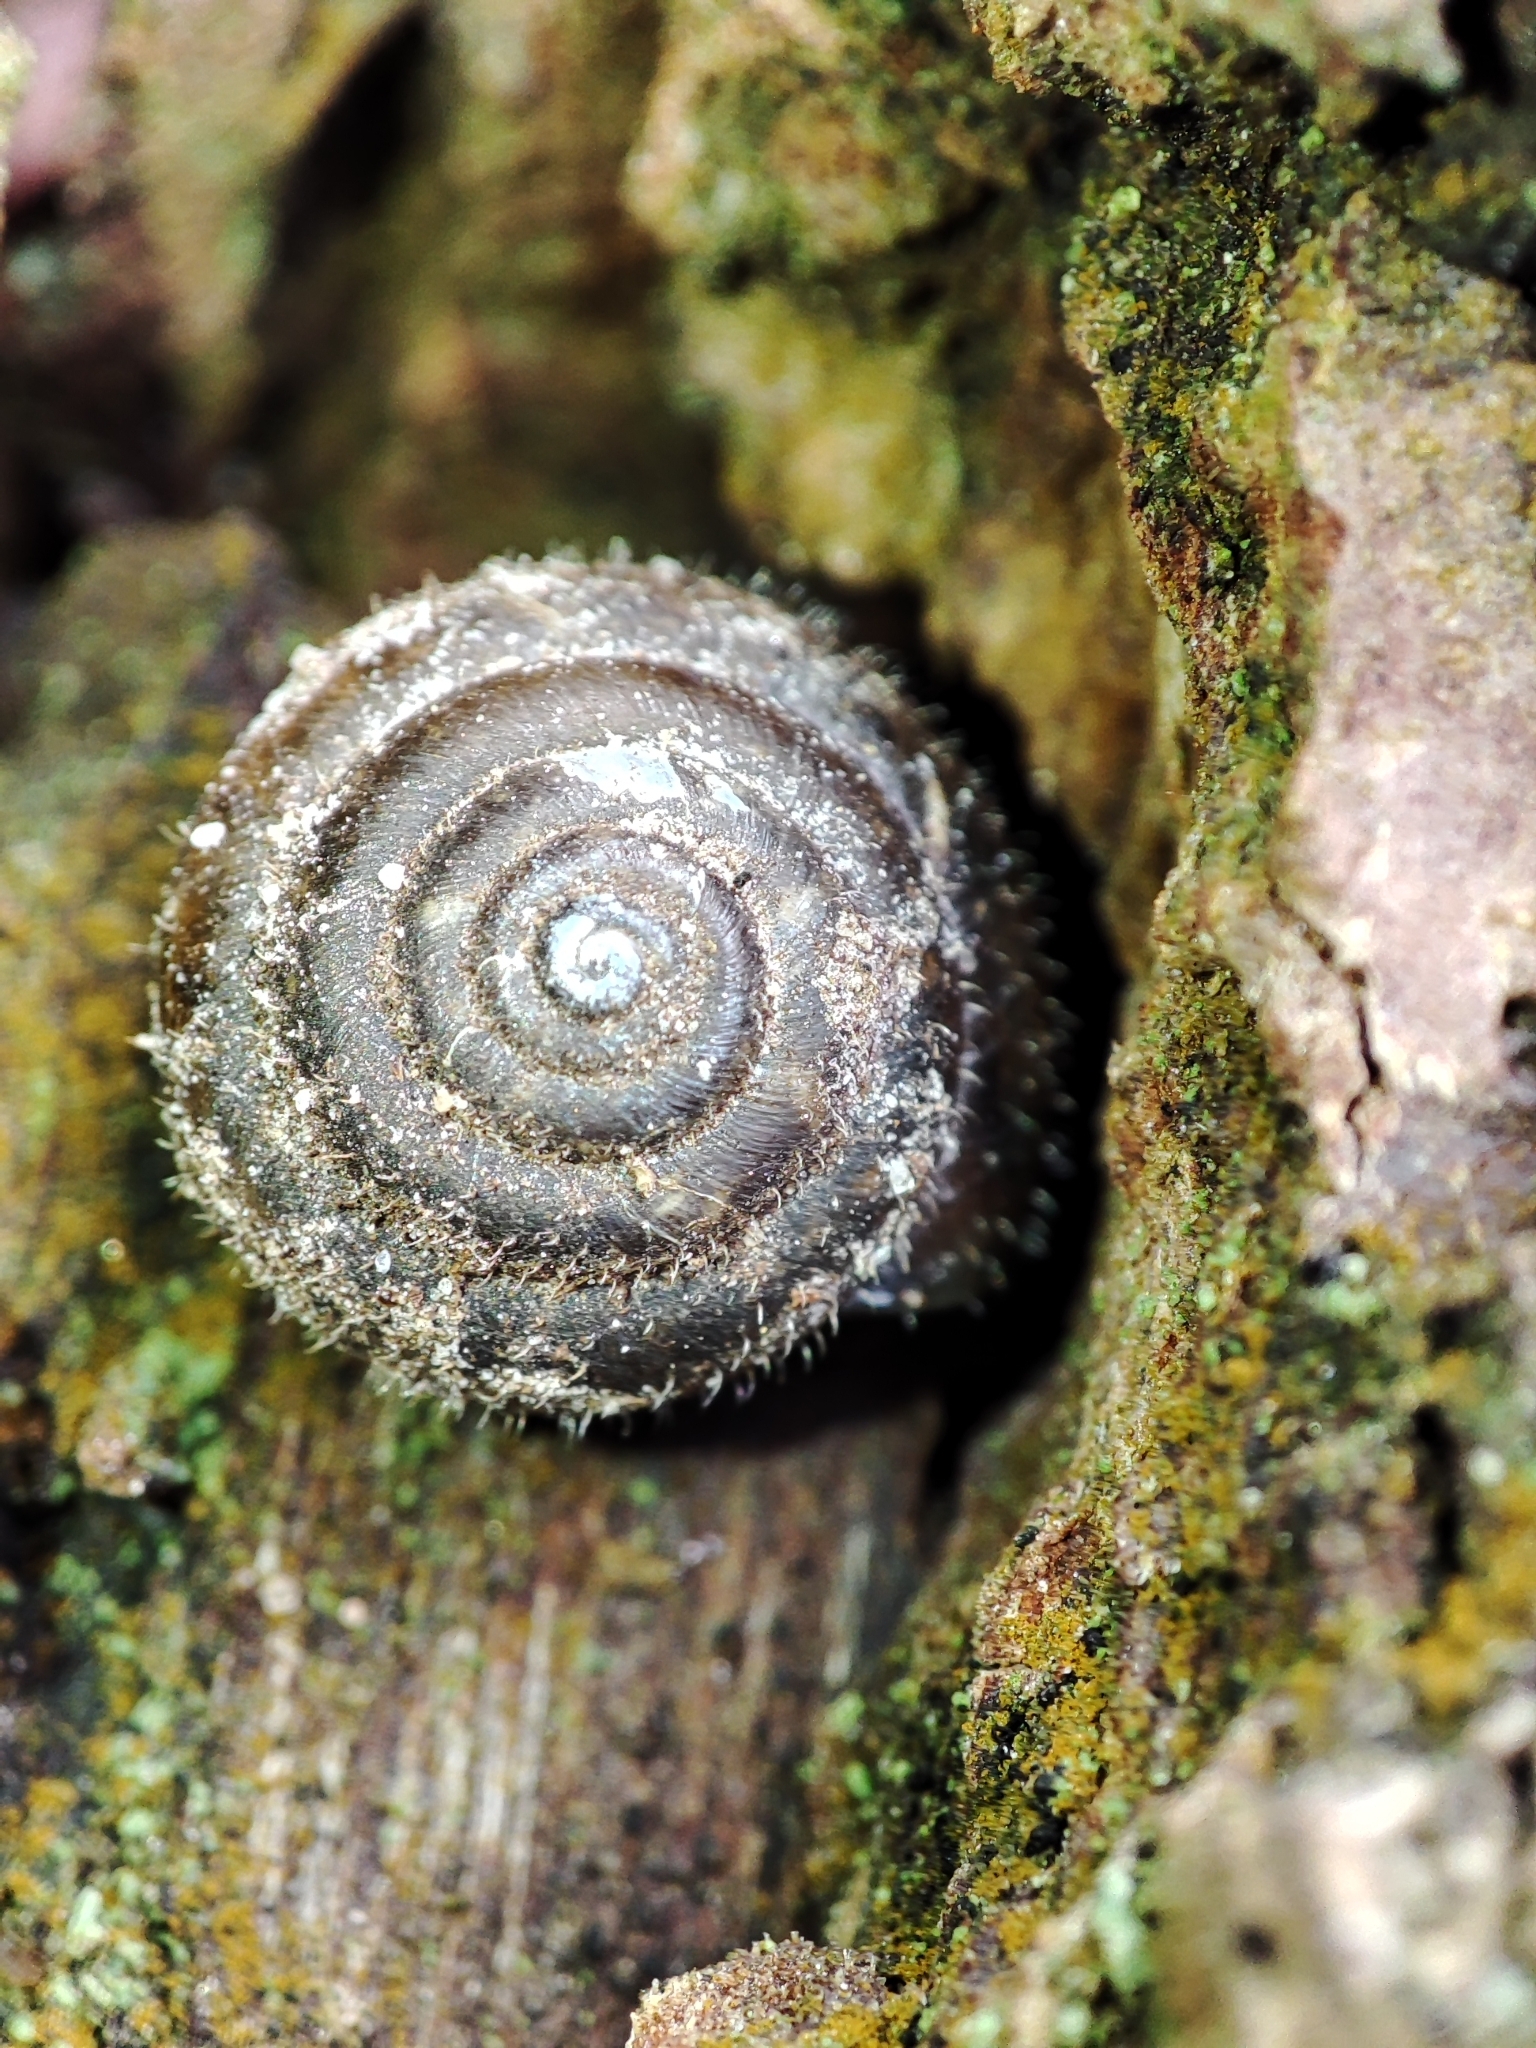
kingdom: Animalia
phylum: Mollusca
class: Gastropoda
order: Stylommatophora
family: Hygromiidae
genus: Trochulus
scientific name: Trochulus hispidus
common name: Hairy snail
